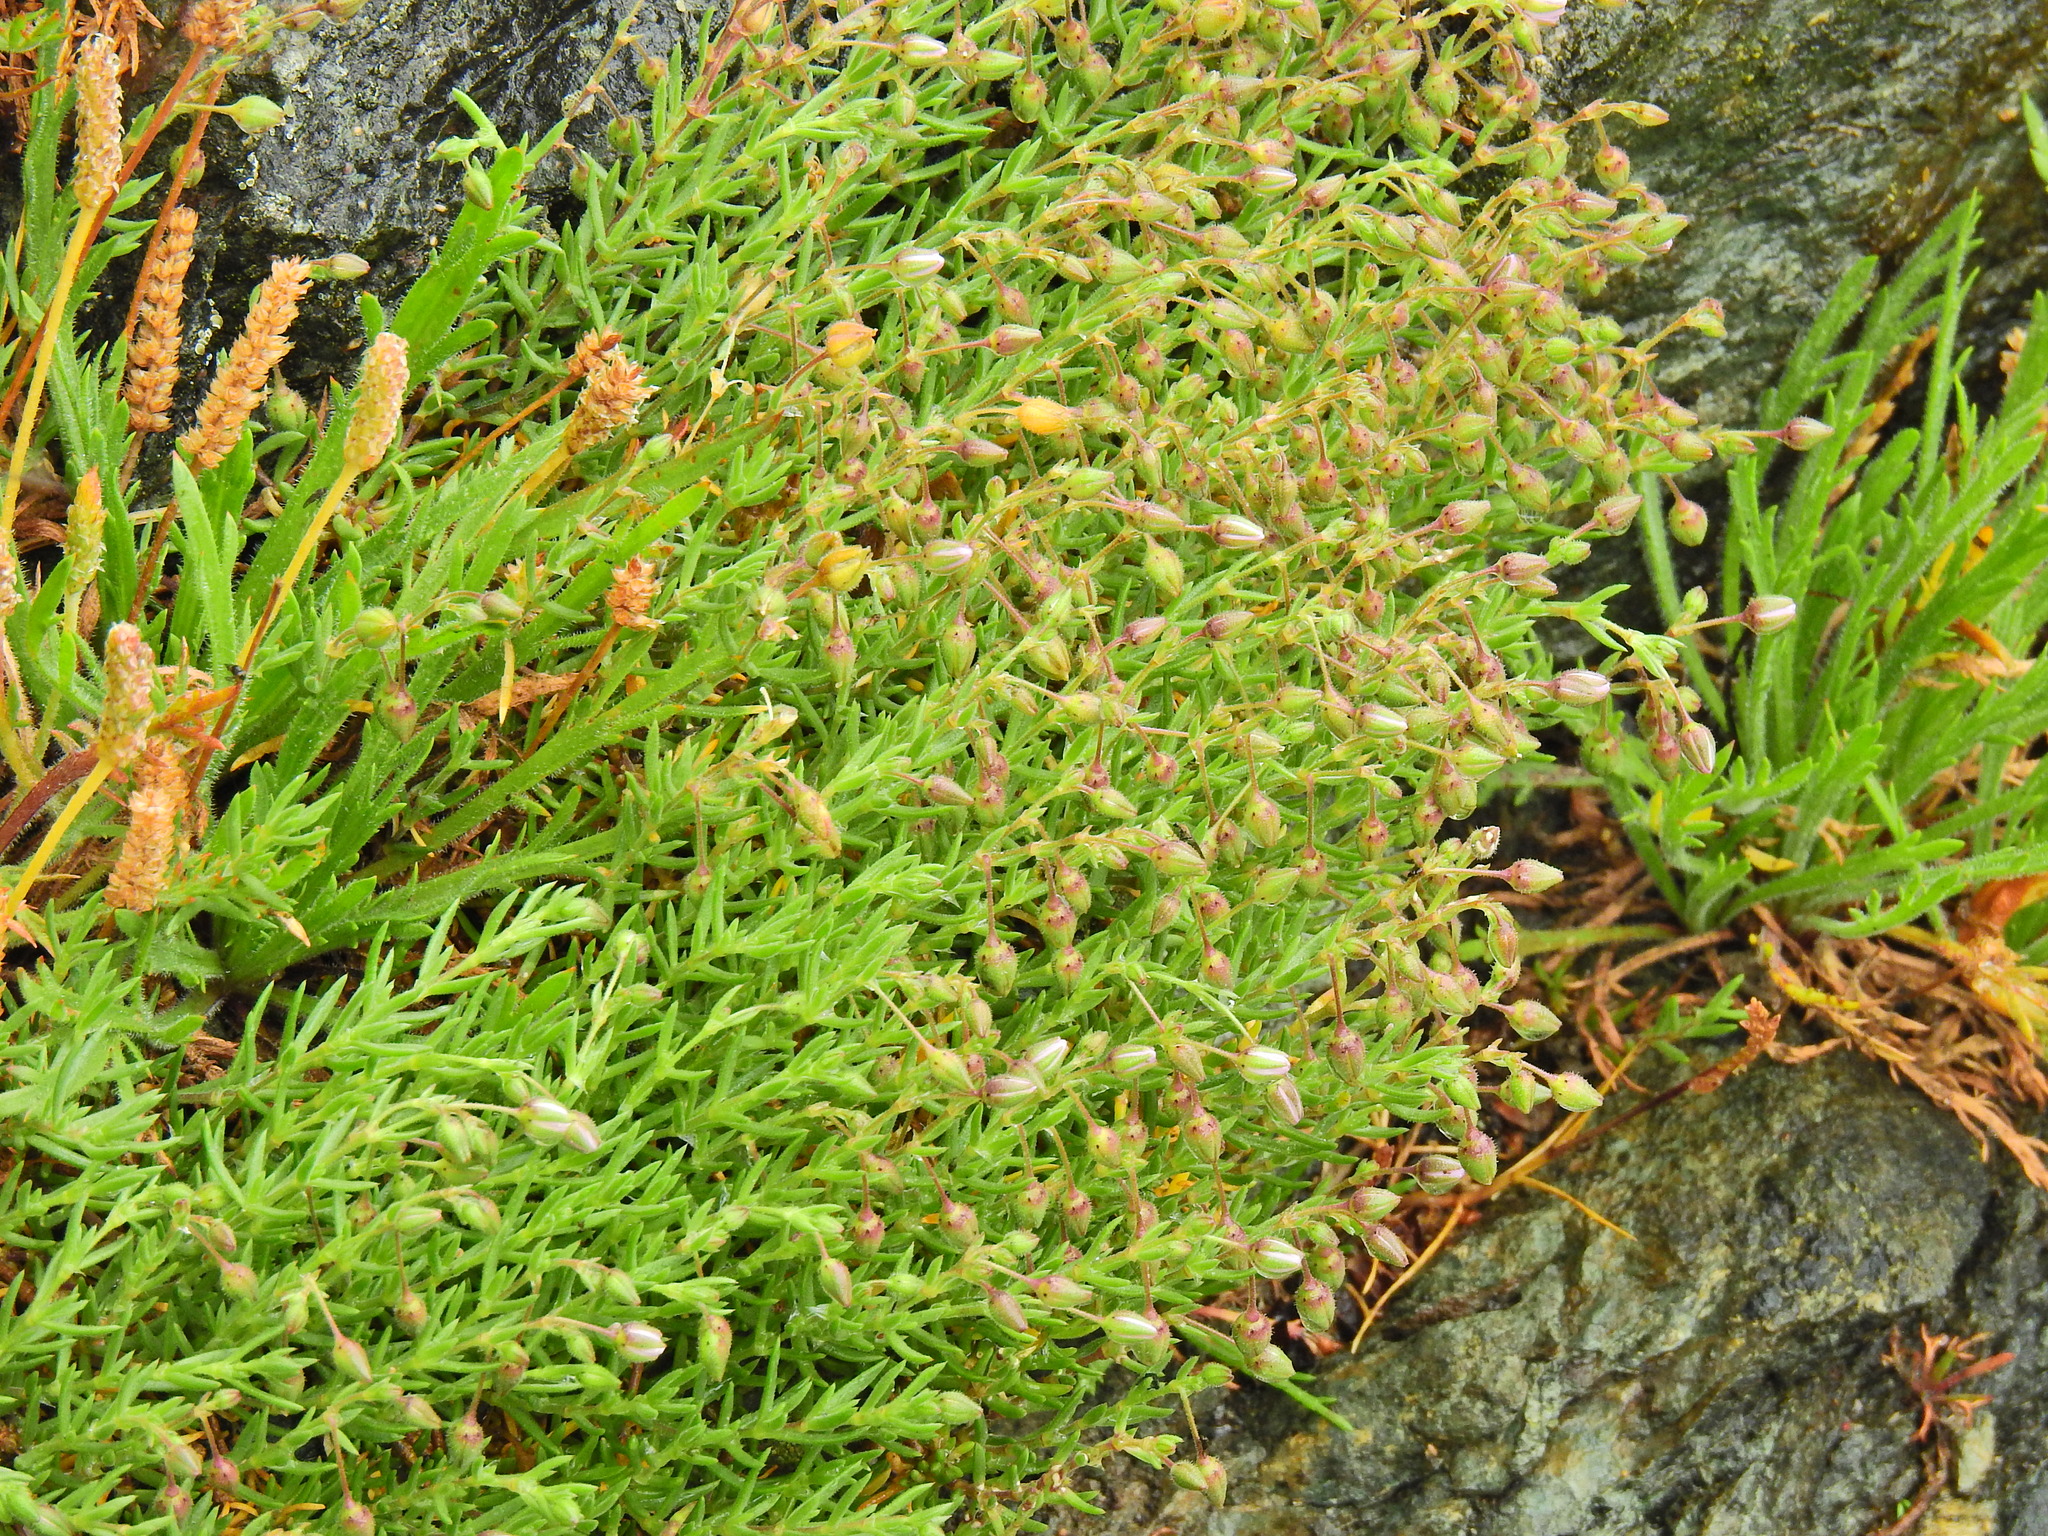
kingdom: Plantae
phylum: Tracheophyta
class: Magnoliopsida
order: Lamiales
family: Plantaginaceae
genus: Plantago
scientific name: Plantago coronopus
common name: Buck's-horn plantain
